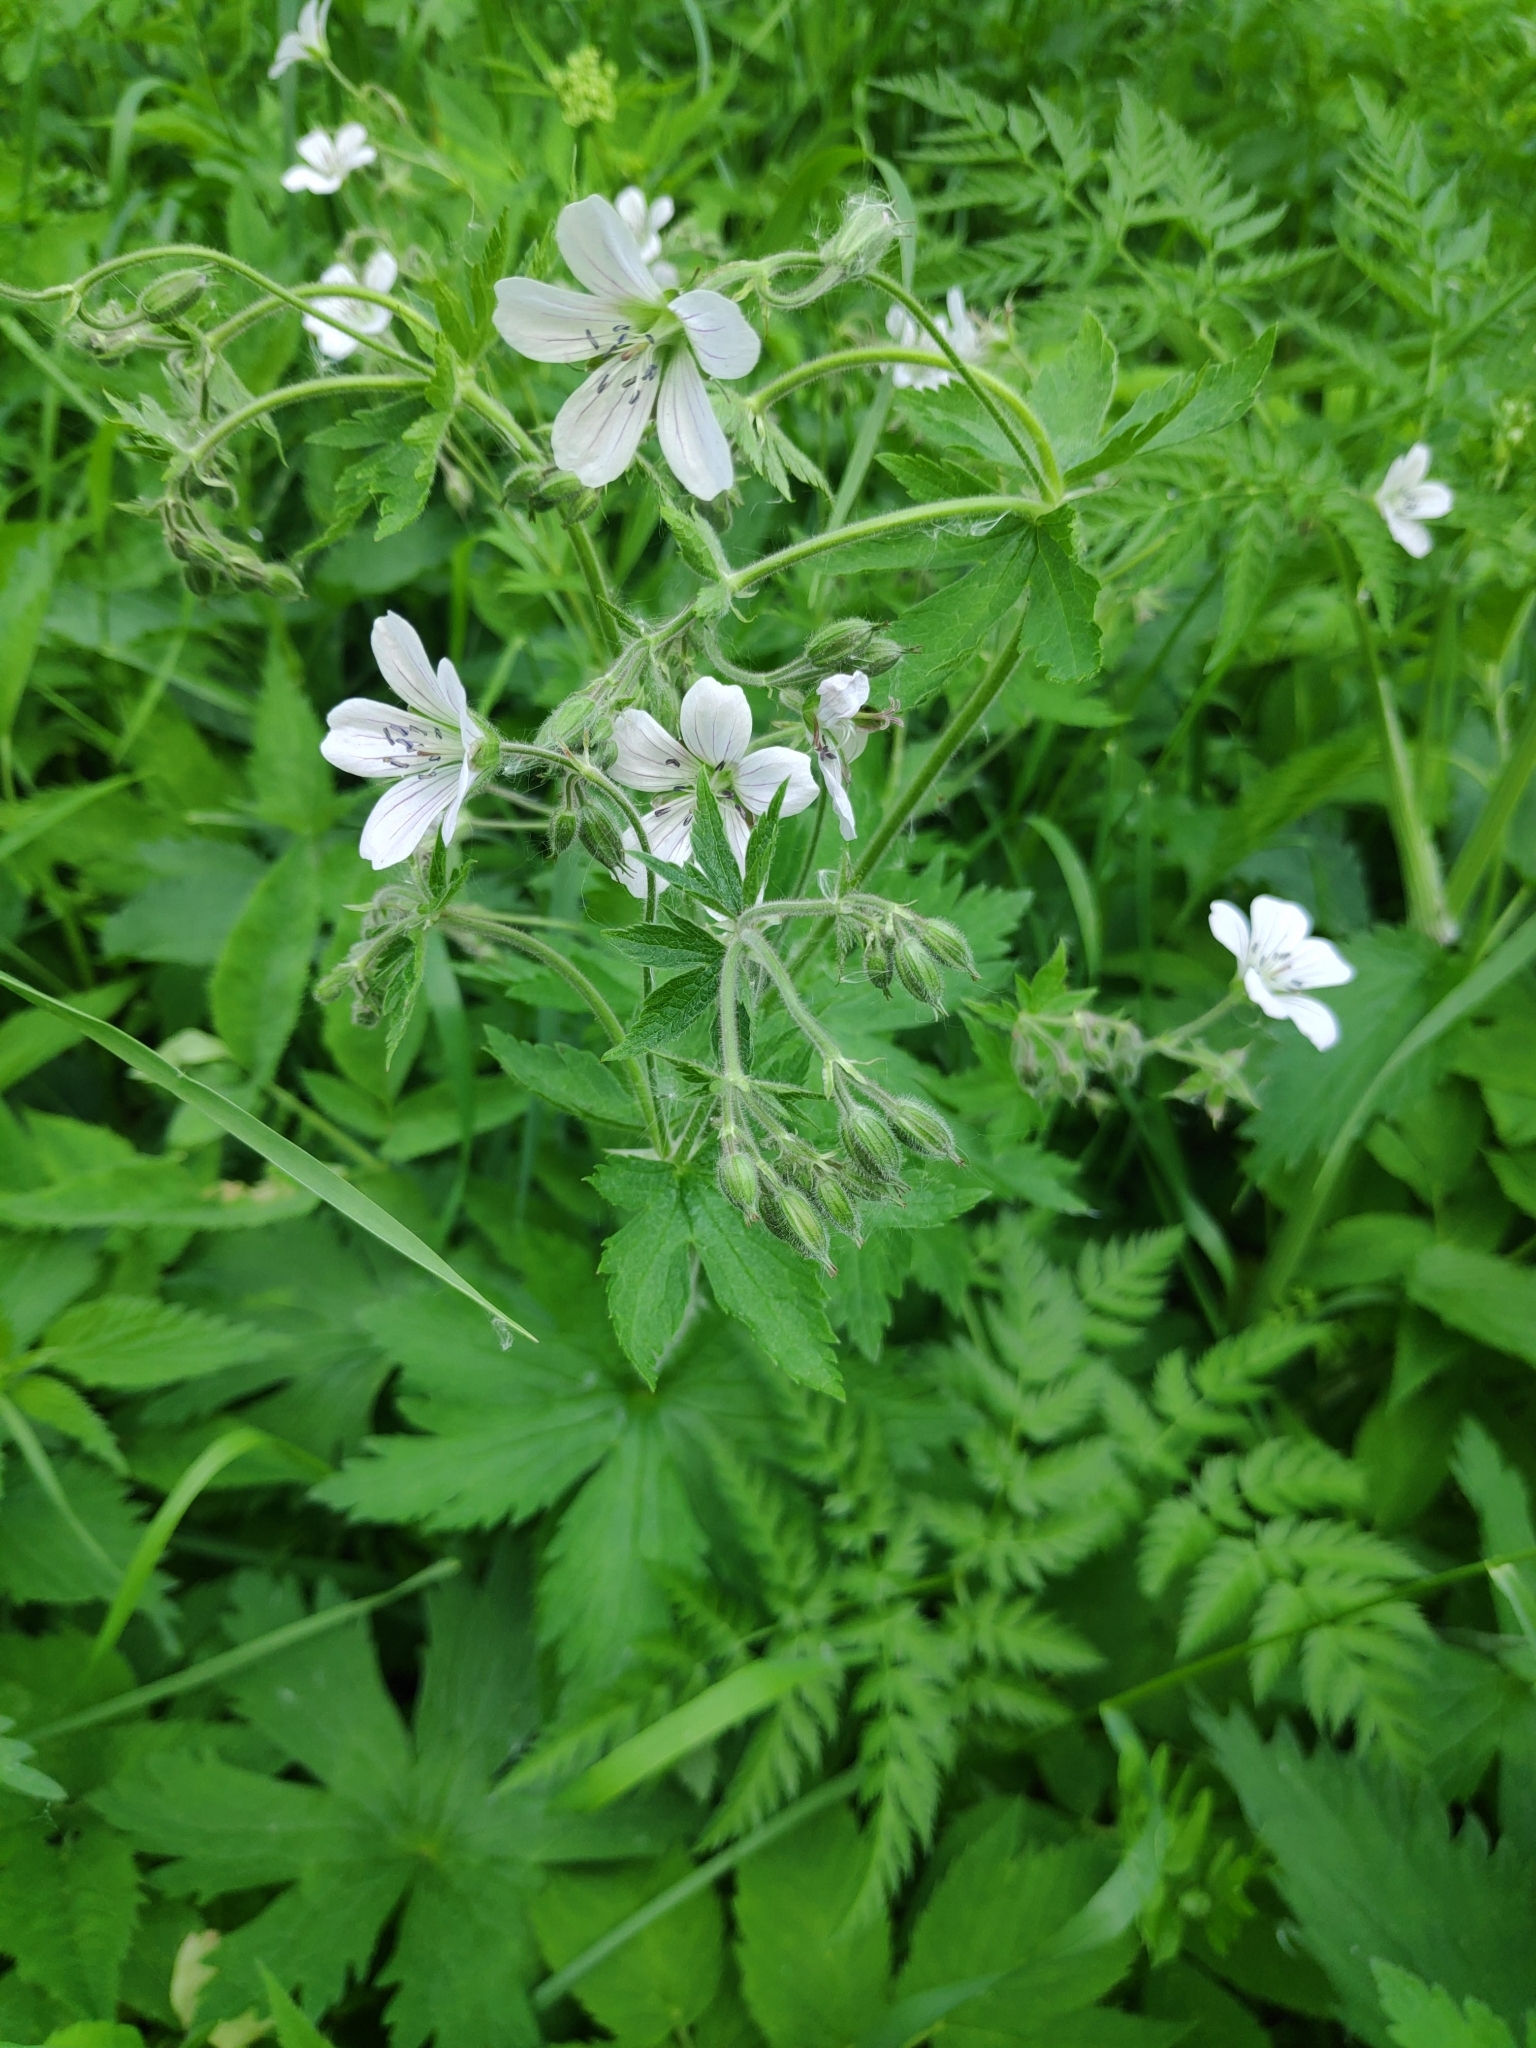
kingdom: Plantae
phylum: Tracheophyta
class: Magnoliopsida
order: Geraniales
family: Geraniaceae
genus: Geranium
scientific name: Geranium sylvaticum
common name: Wood crane's-bill
